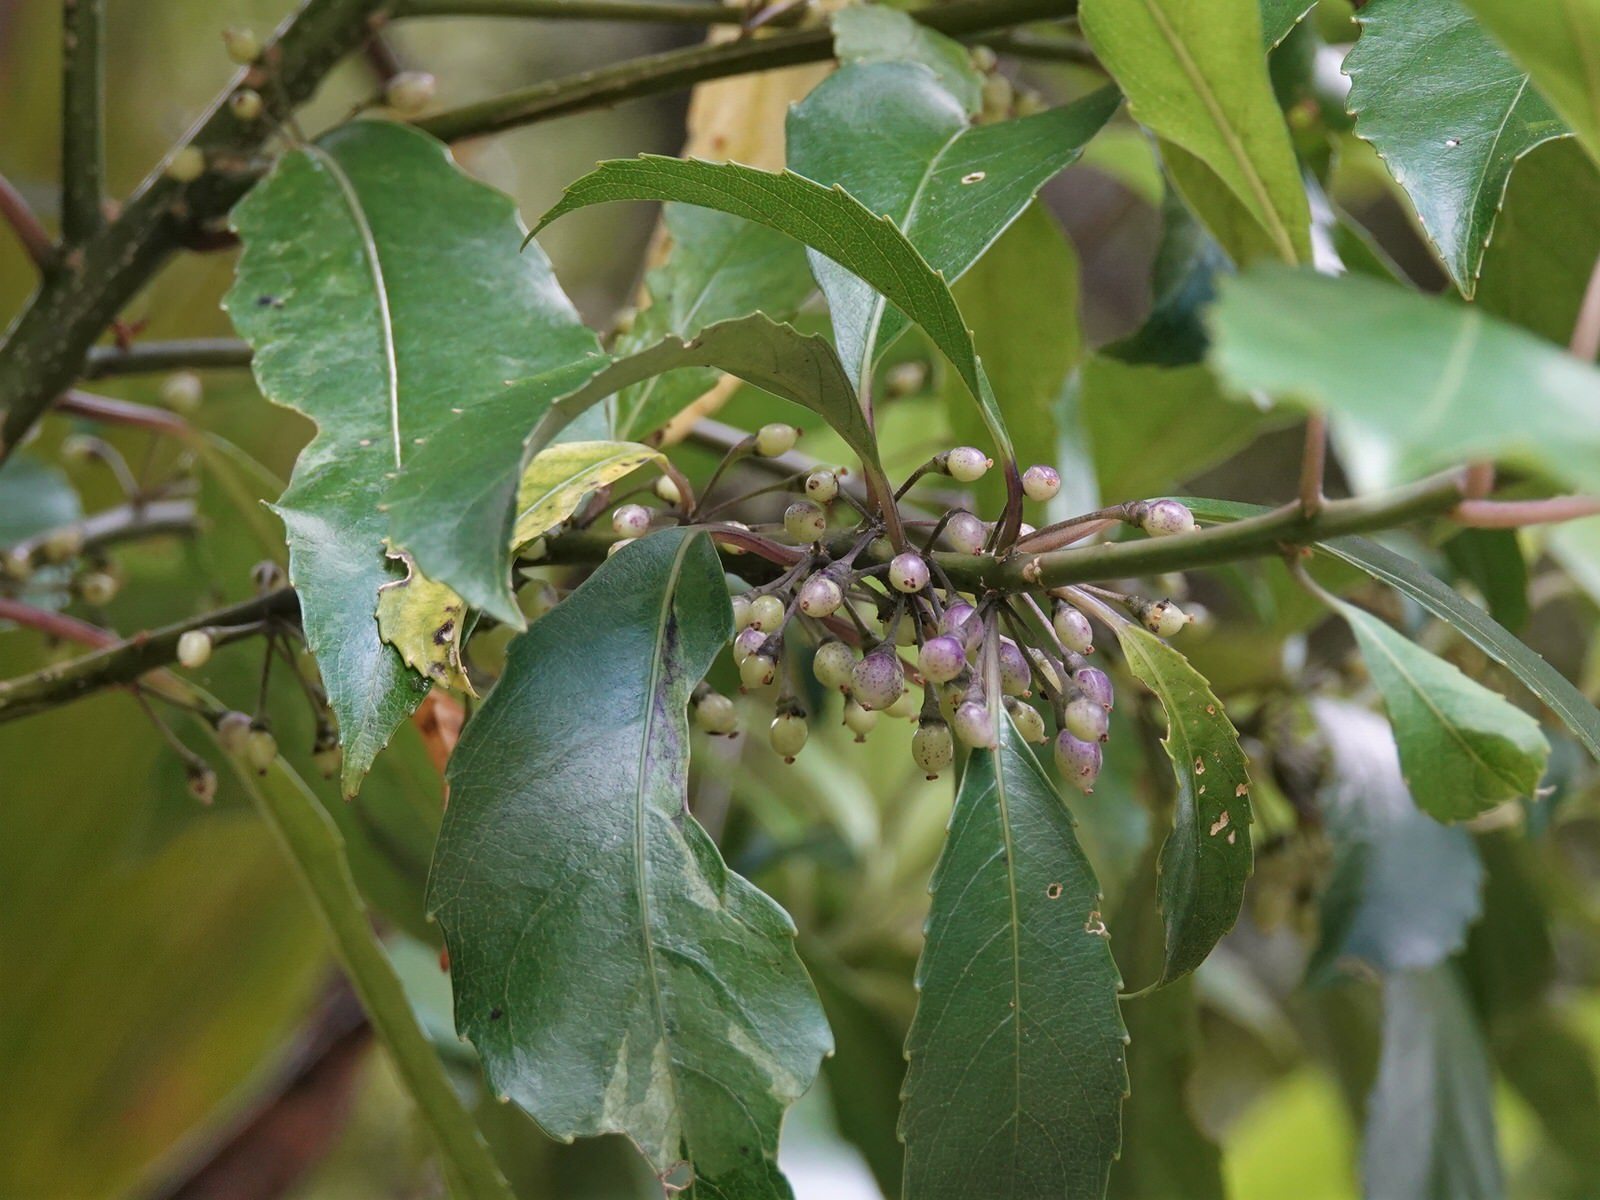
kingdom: Plantae
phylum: Tracheophyta
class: Magnoliopsida
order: Malpighiales
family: Violaceae
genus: Melicytus
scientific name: Melicytus macrophyllus
